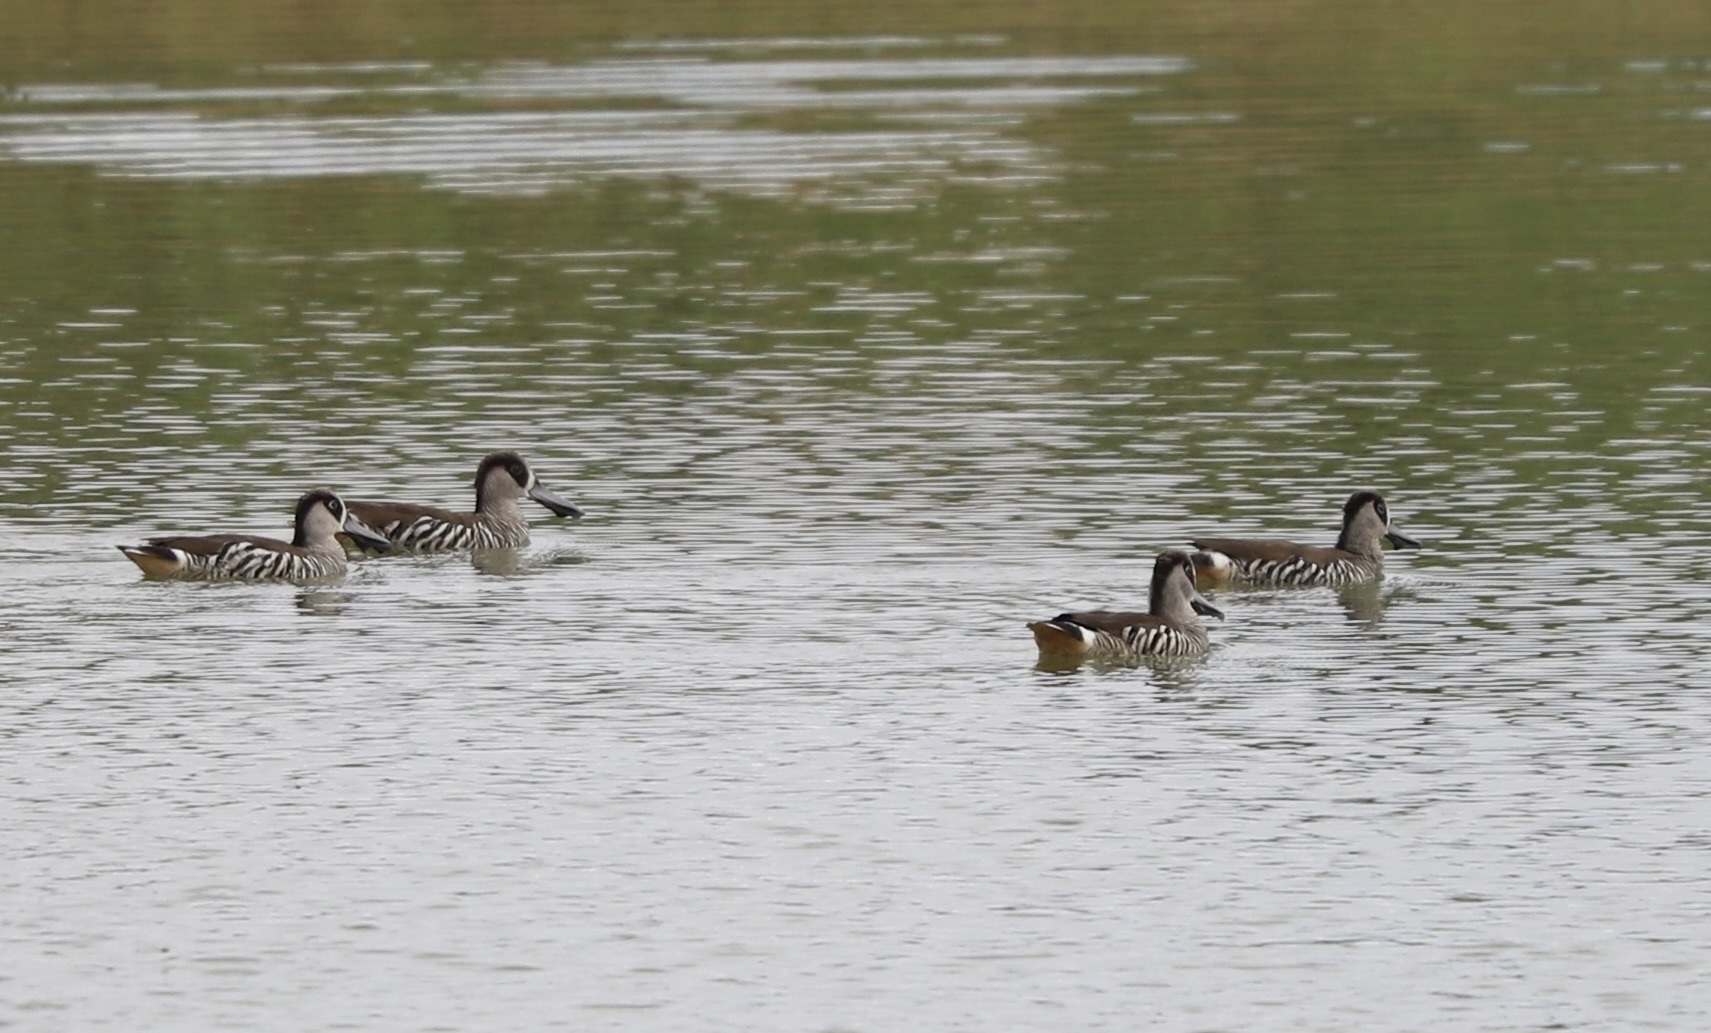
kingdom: Animalia
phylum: Chordata
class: Aves
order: Anseriformes
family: Anatidae
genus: Malacorhynchus
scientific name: Malacorhynchus membranaceus
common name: Pink-eared duck
